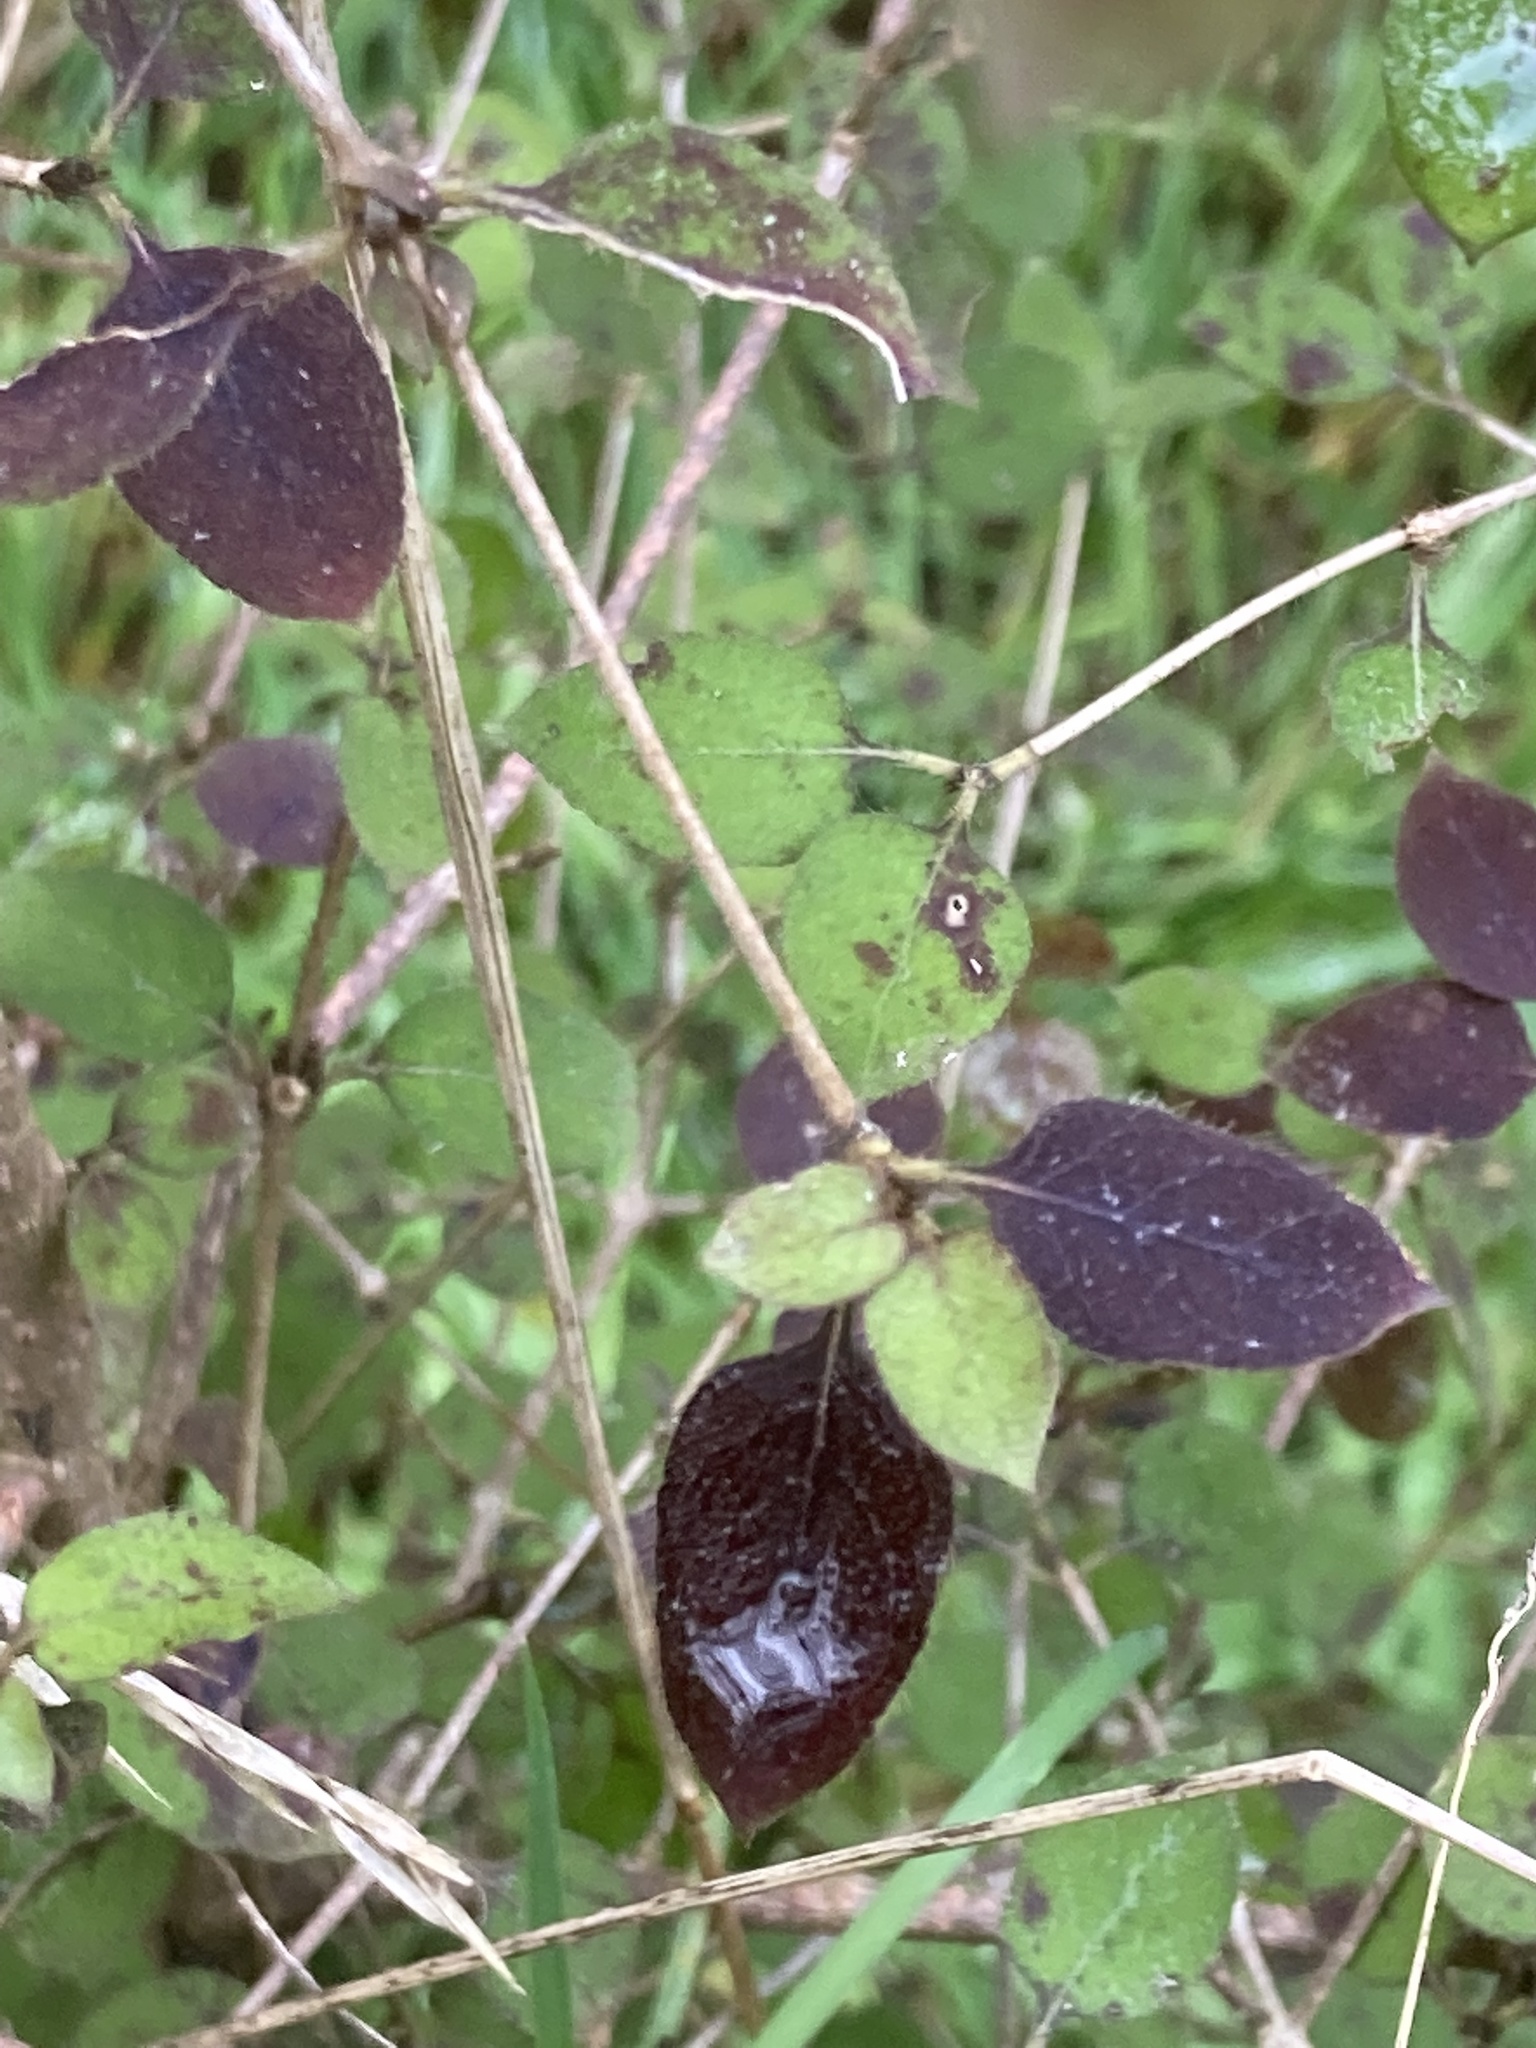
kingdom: Plantae
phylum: Tracheophyta
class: Magnoliopsida
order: Gentianales
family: Rubiaceae
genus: Coprosma
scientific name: Coprosma rotundifolia
